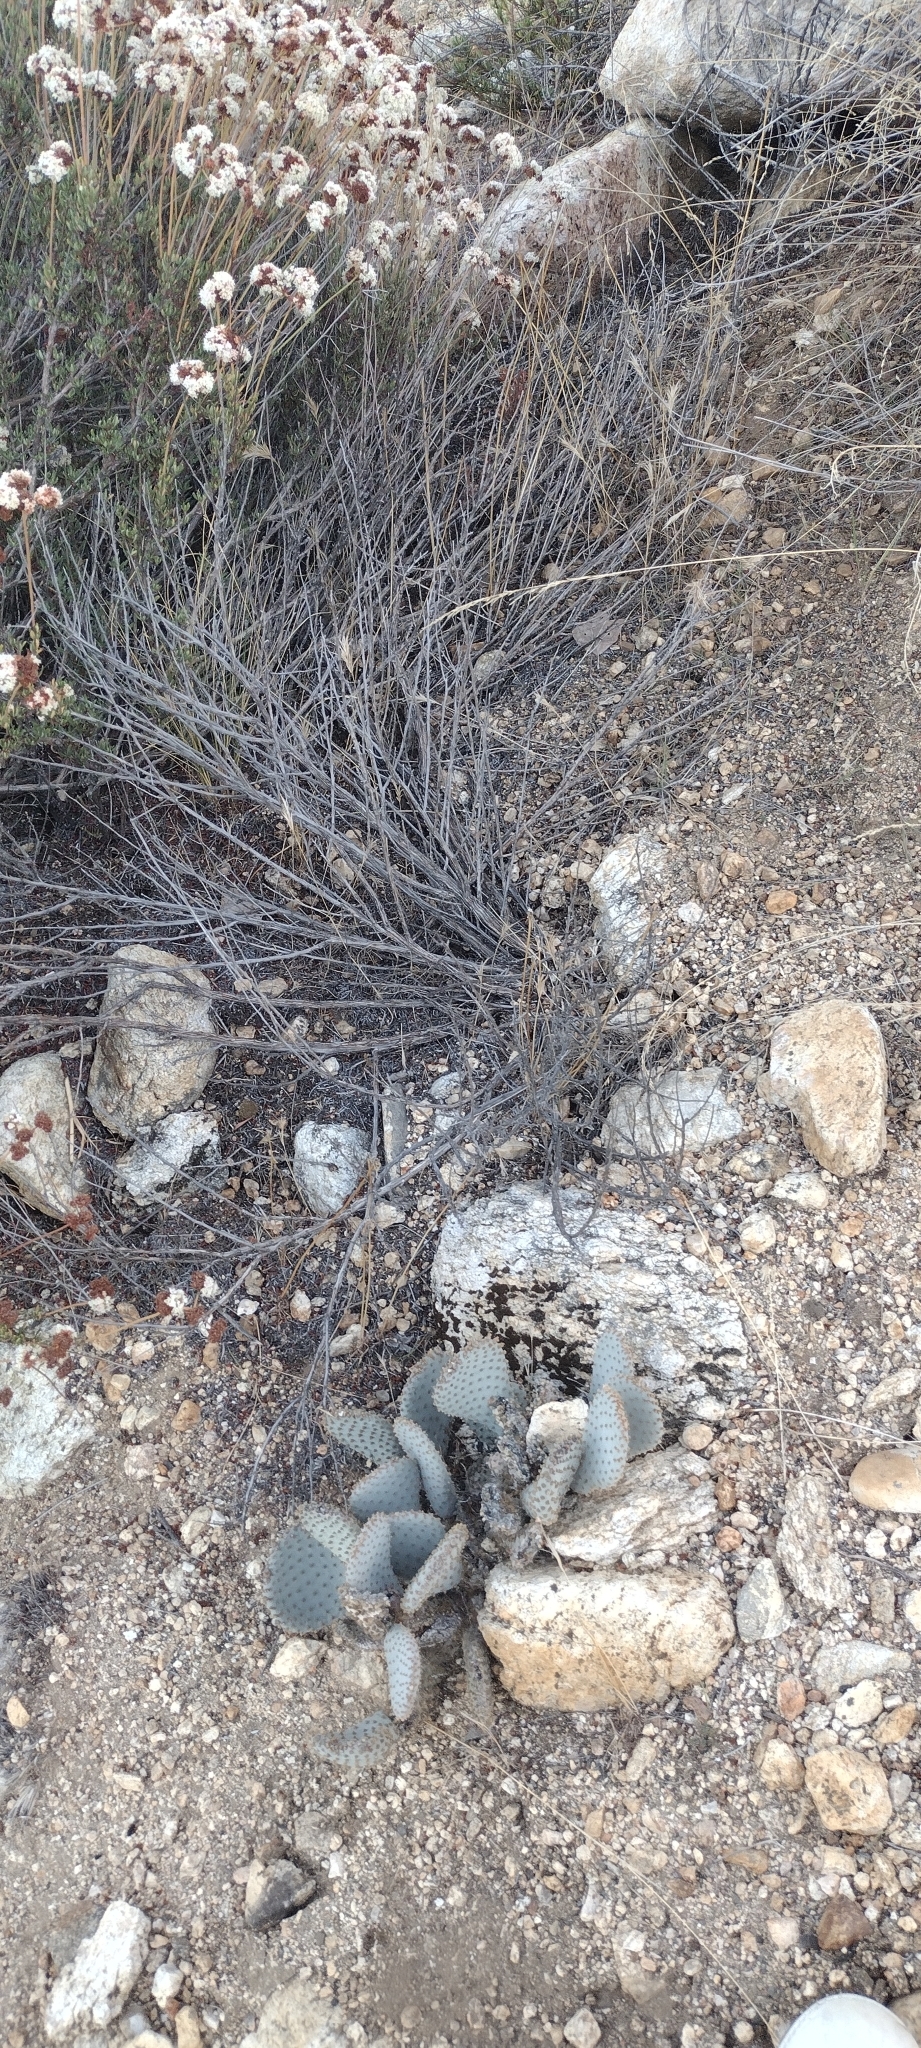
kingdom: Plantae
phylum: Tracheophyta
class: Magnoliopsida
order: Caryophyllales
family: Cactaceae
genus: Opuntia
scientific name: Opuntia basilaris
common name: Beavertail prickly-pear
